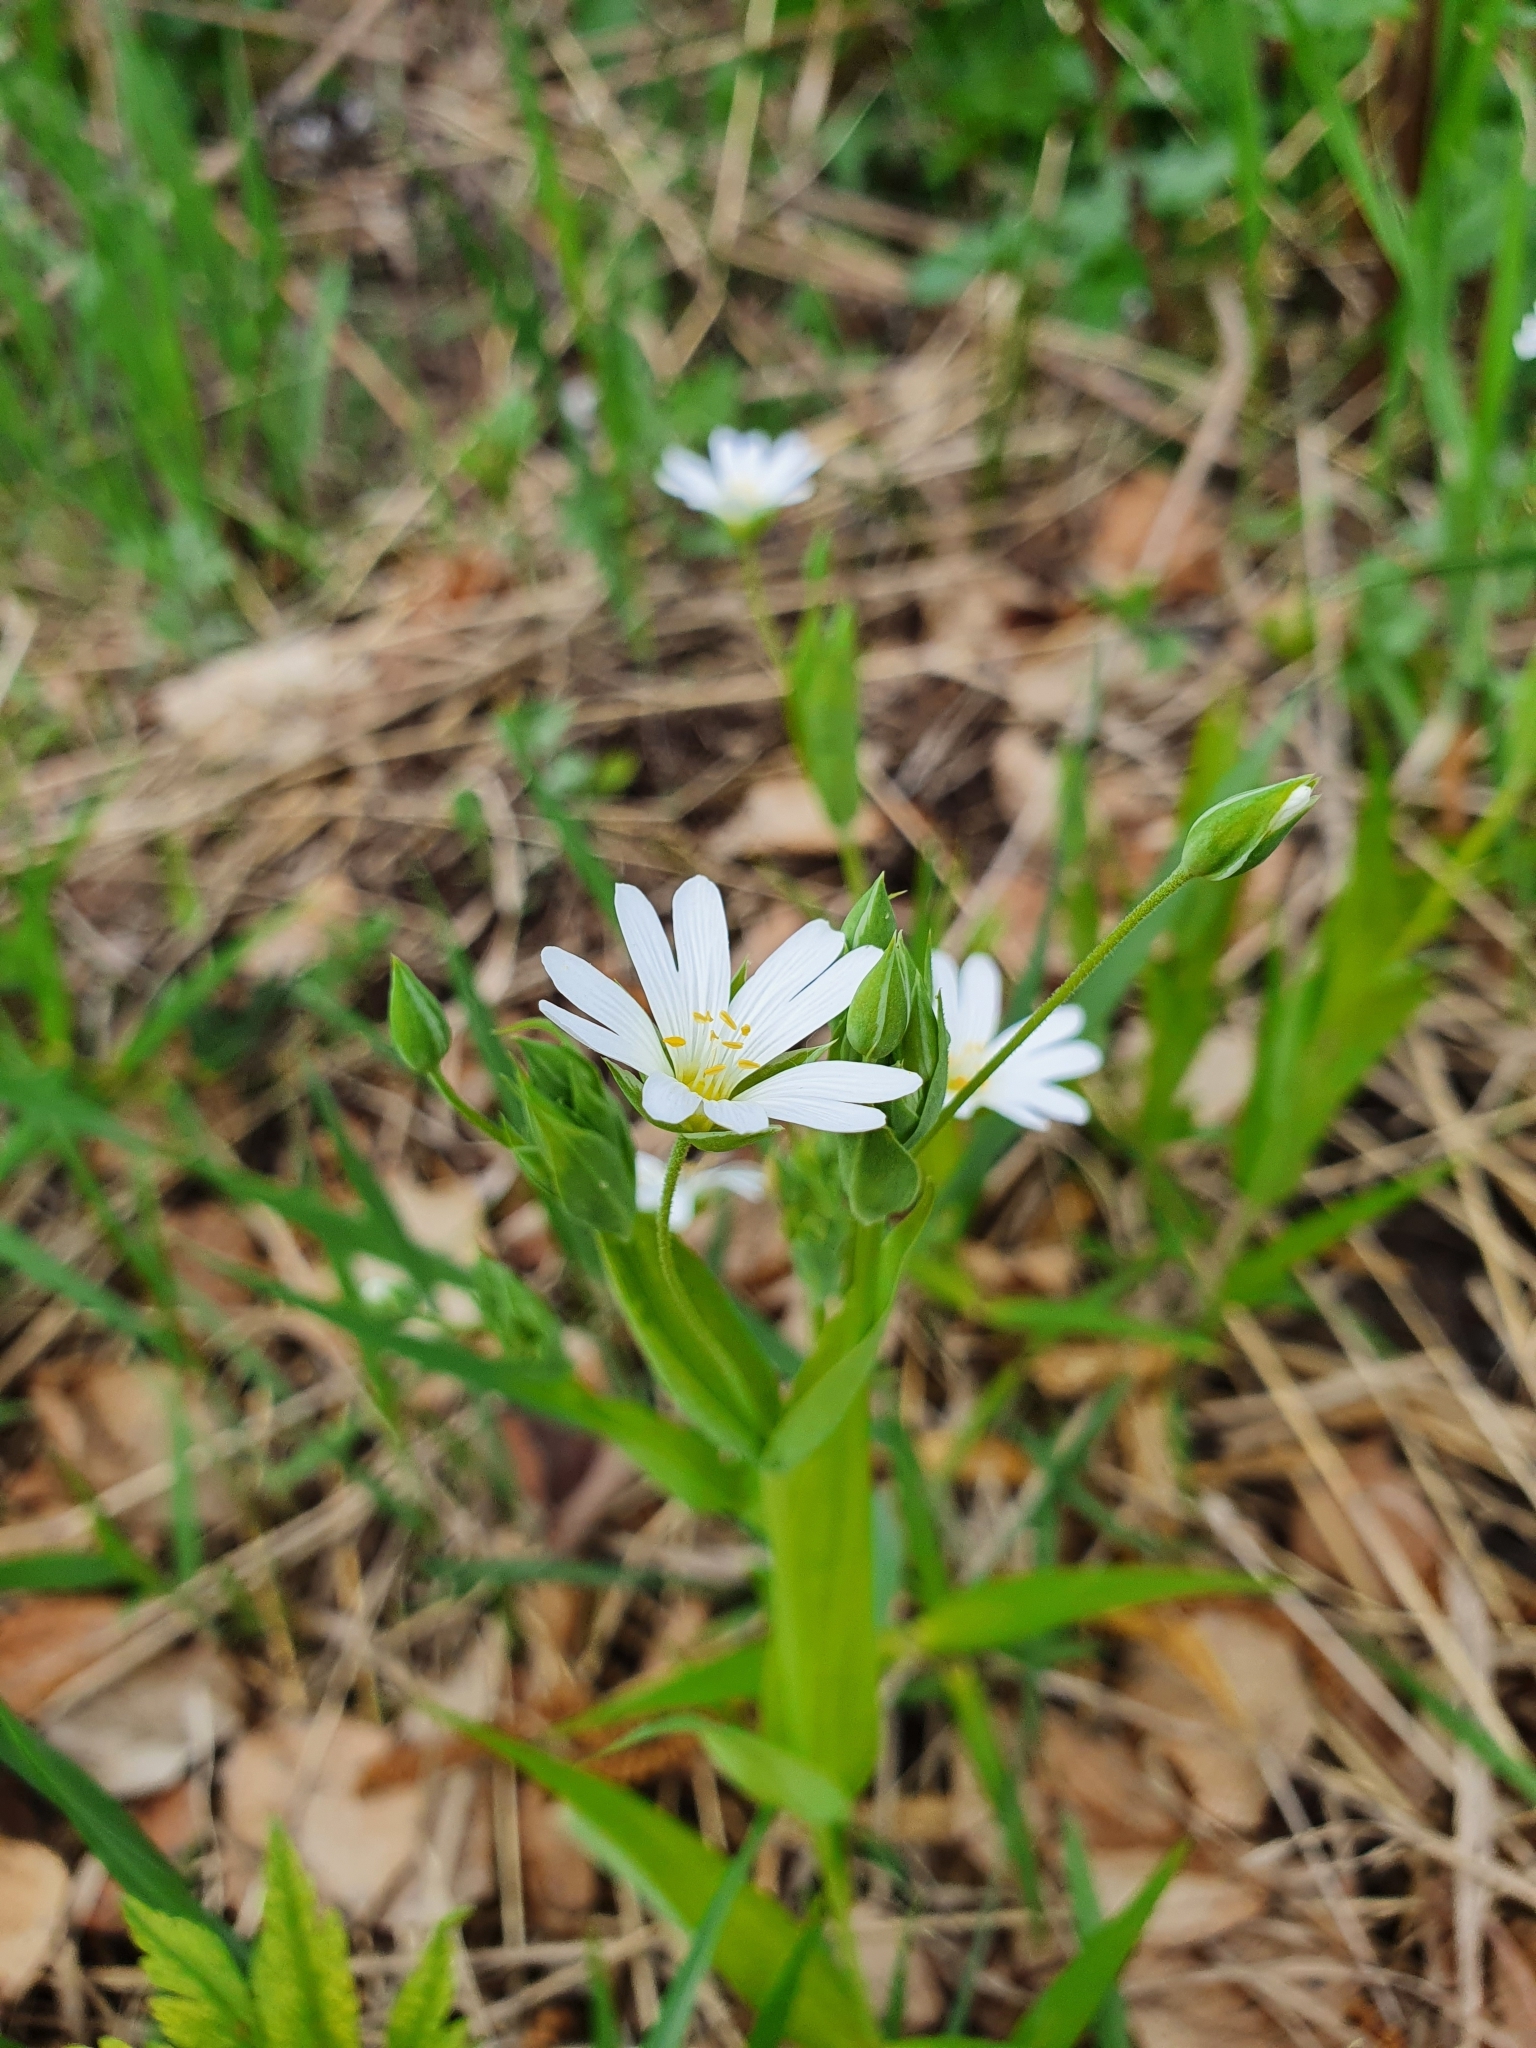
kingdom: Plantae
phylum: Tracheophyta
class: Magnoliopsida
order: Caryophyllales
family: Caryophyllaceae
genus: Rabelera
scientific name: Rabelera holostea
